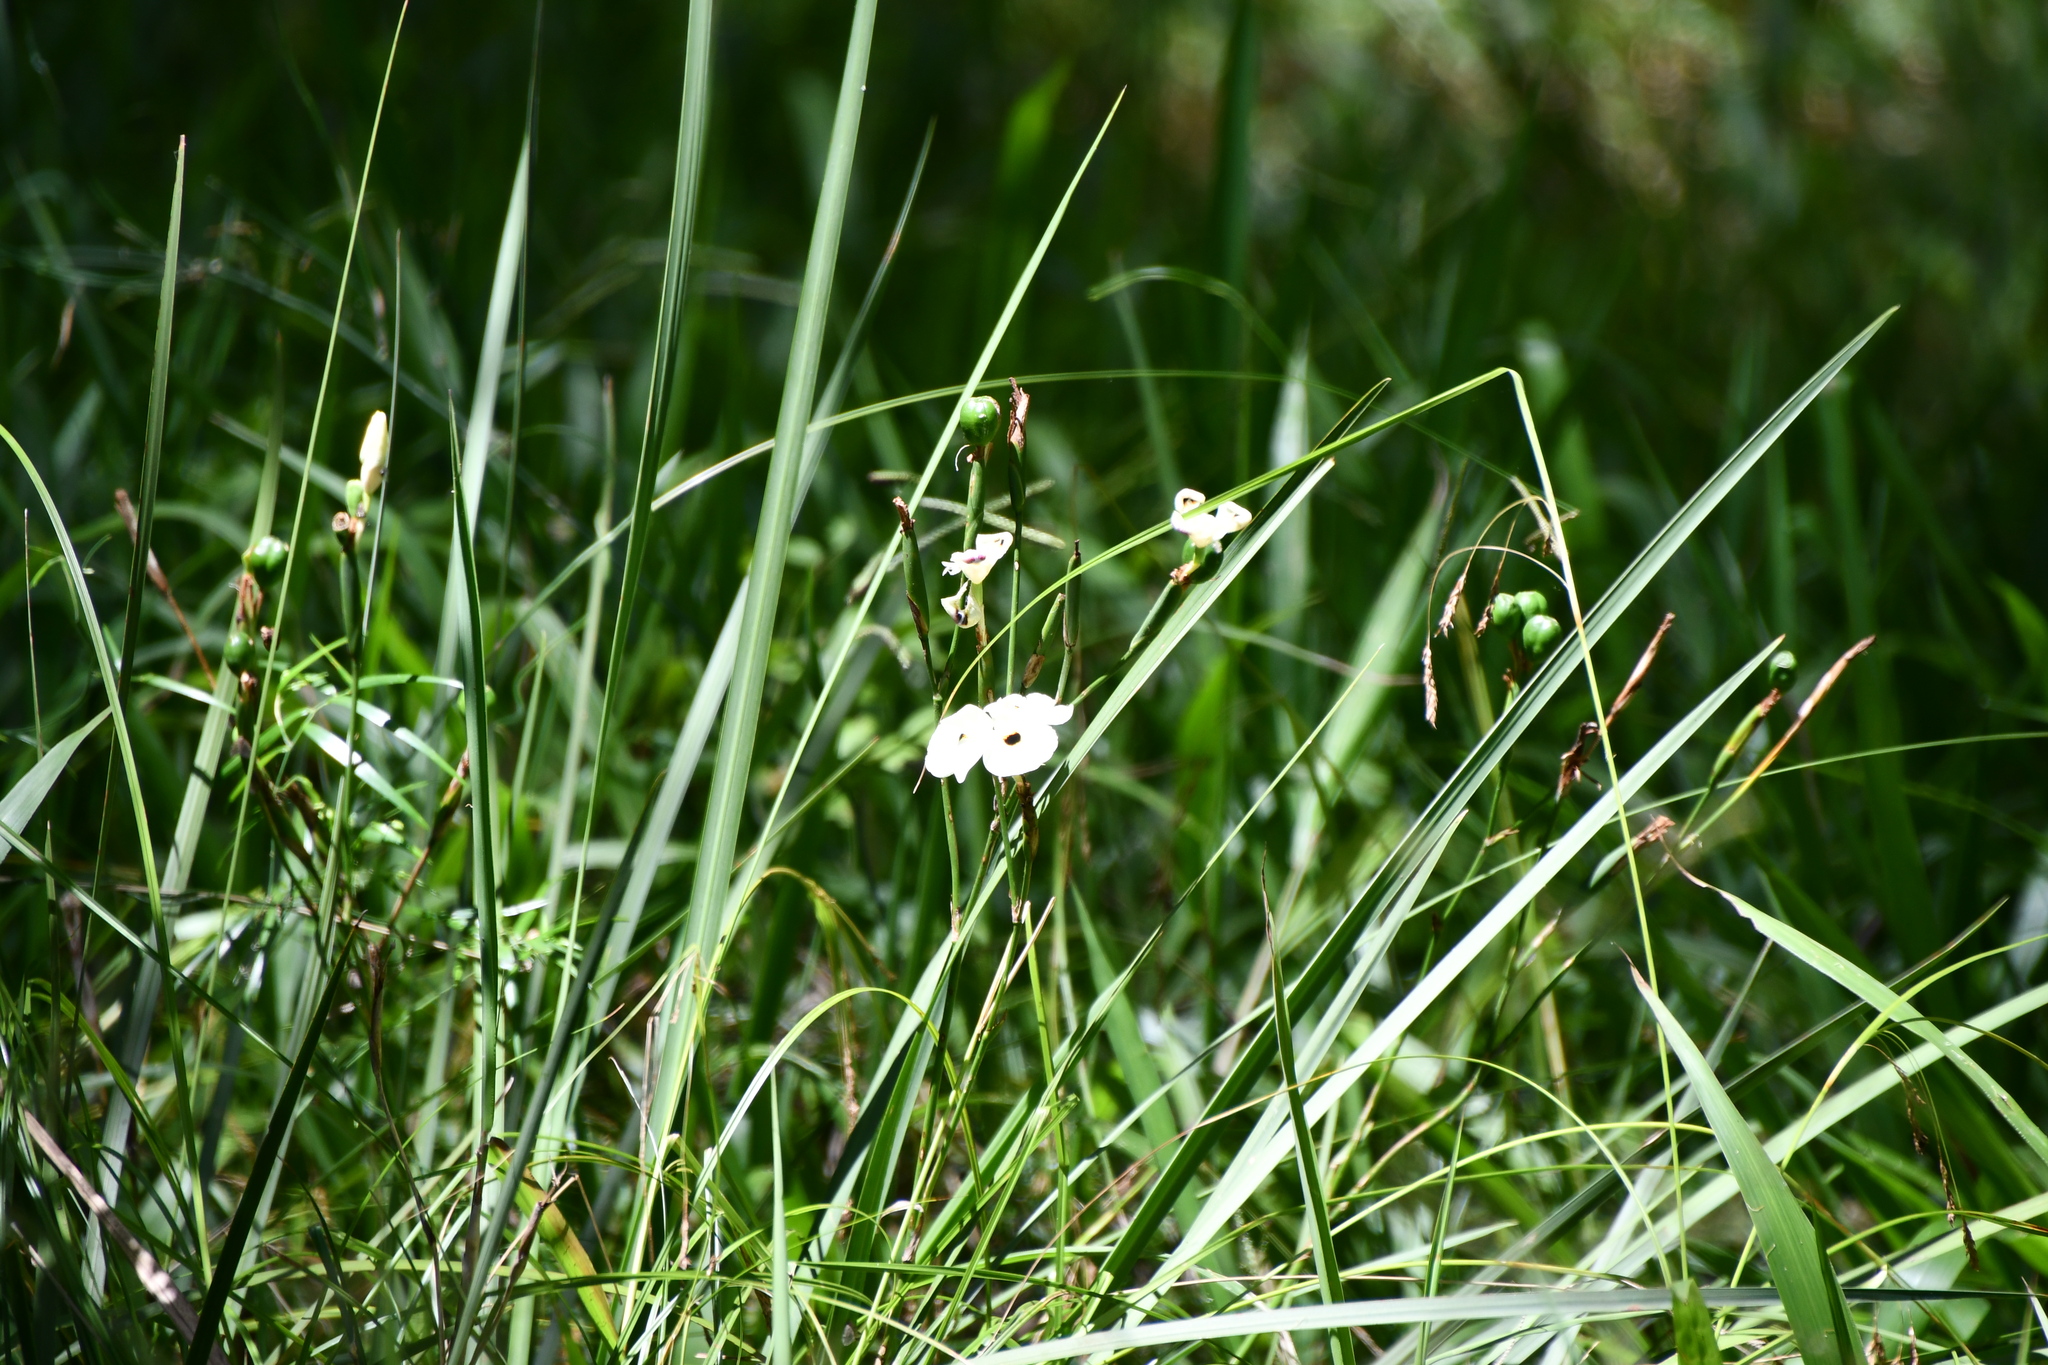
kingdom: Plantae
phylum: Tracheophyta
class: Liliopsida
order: Asparagales
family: Iridaceae
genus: Dietes
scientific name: Dietes bicolor
